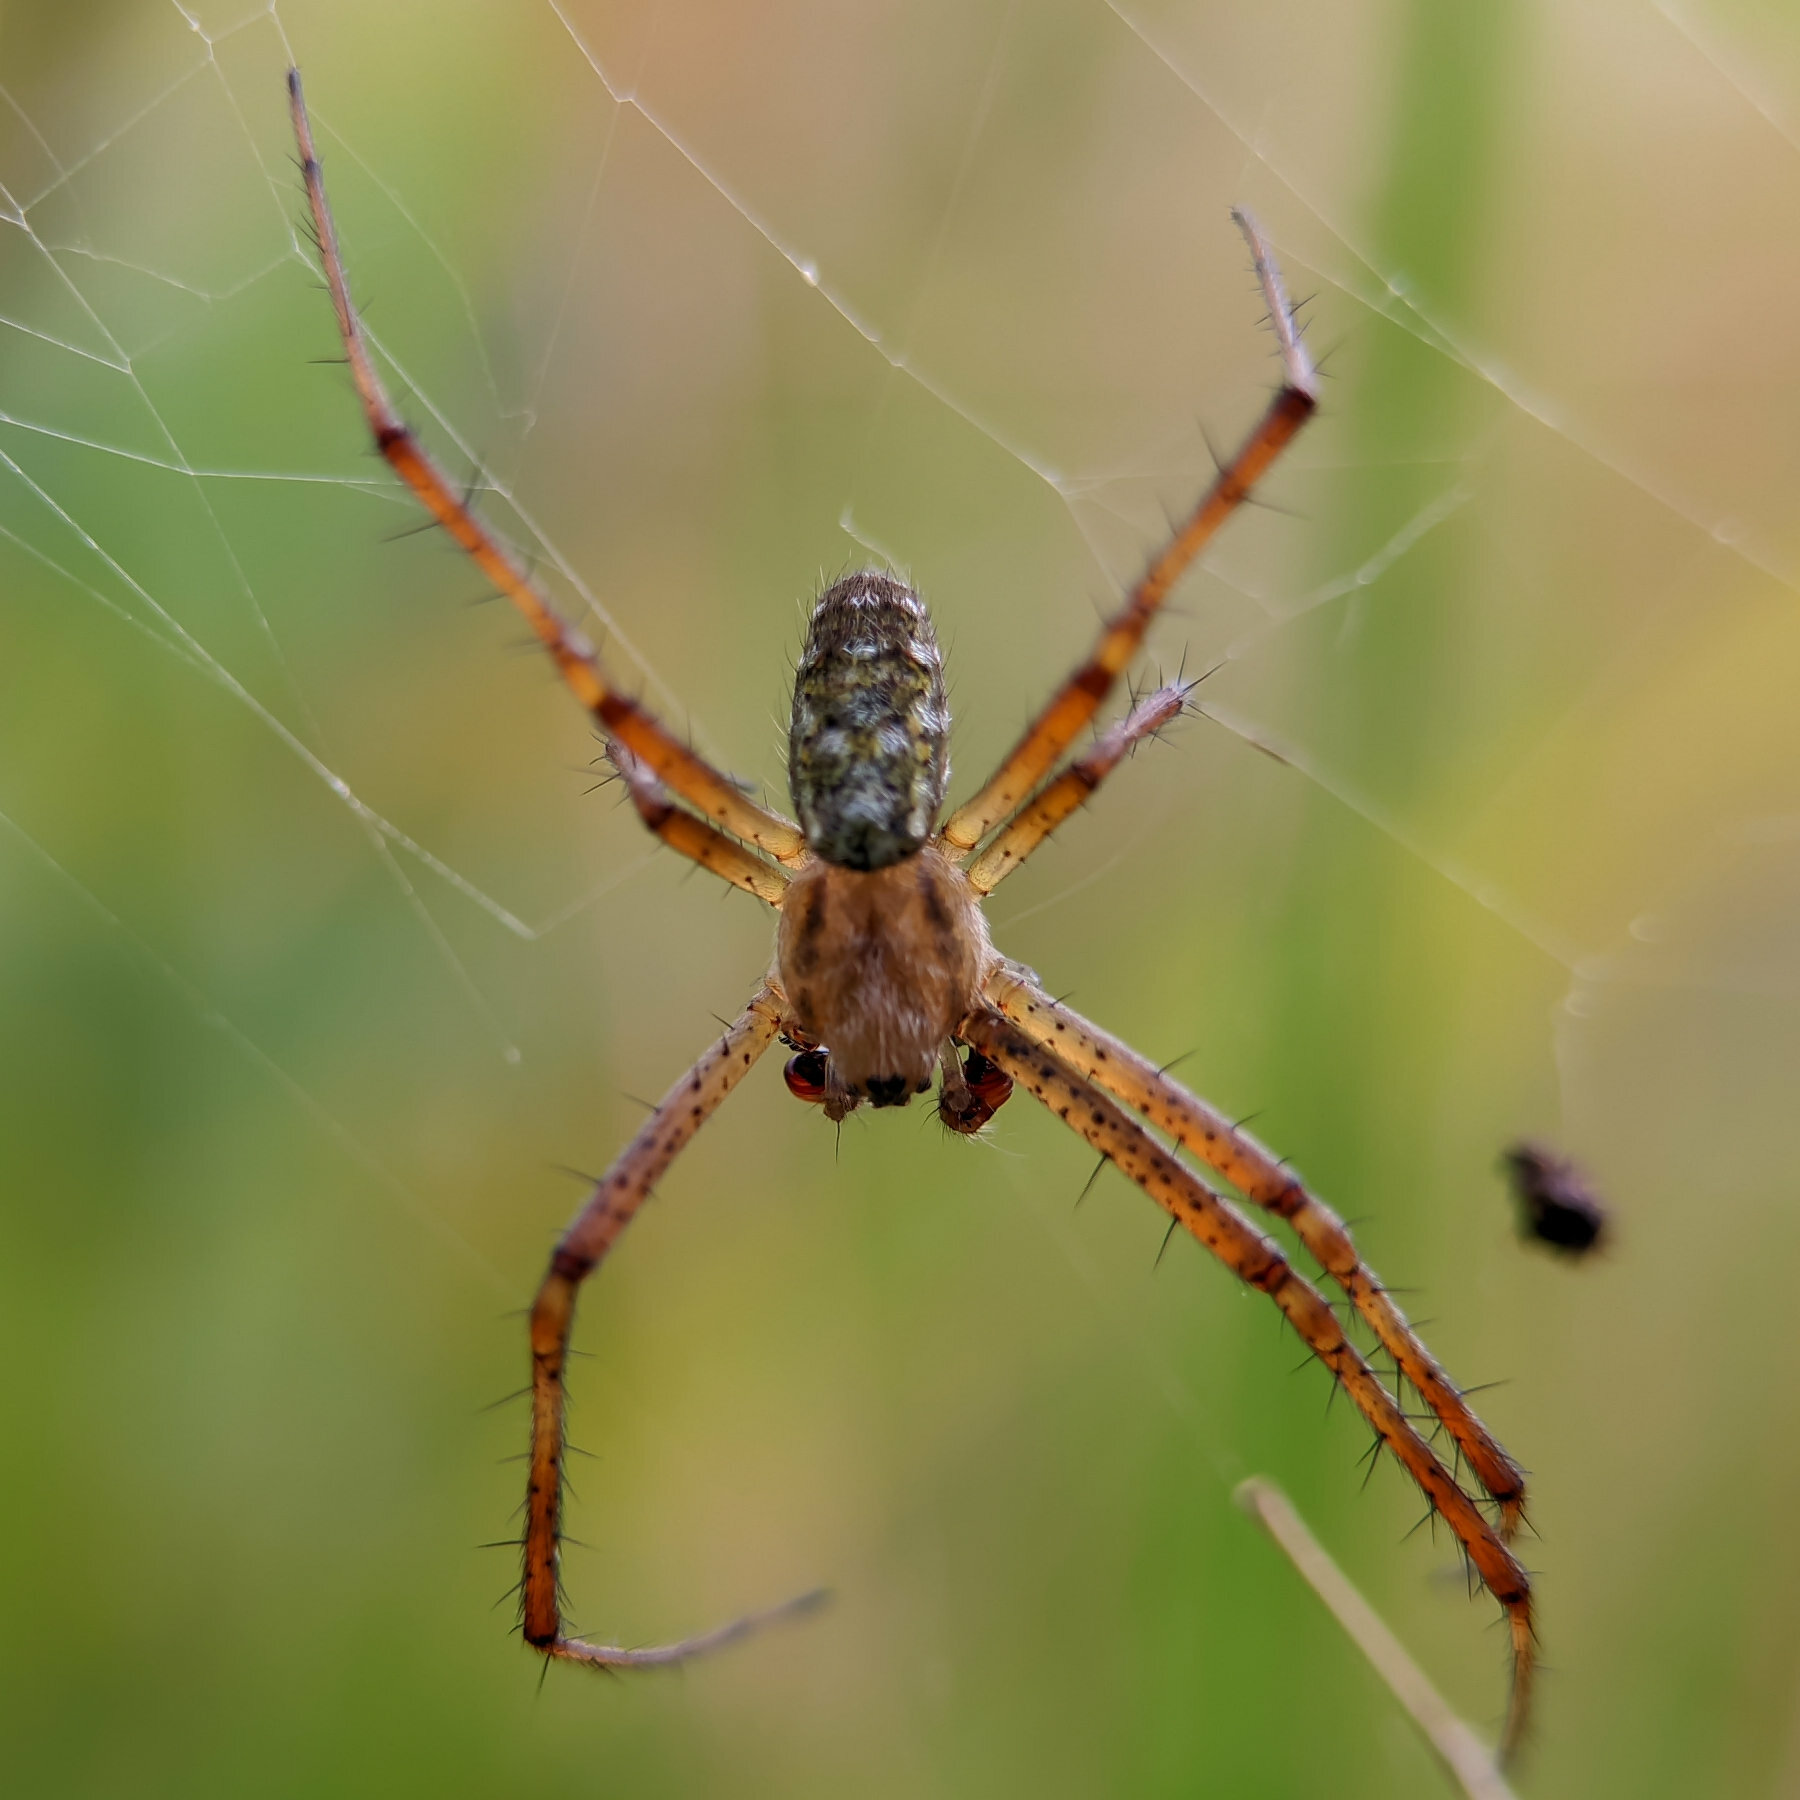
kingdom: Animalia
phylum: Arthropoda
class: Arachnida
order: Araneae
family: Araneidae
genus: Argiope
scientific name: Argiope bruennichi
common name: Wasp spider
